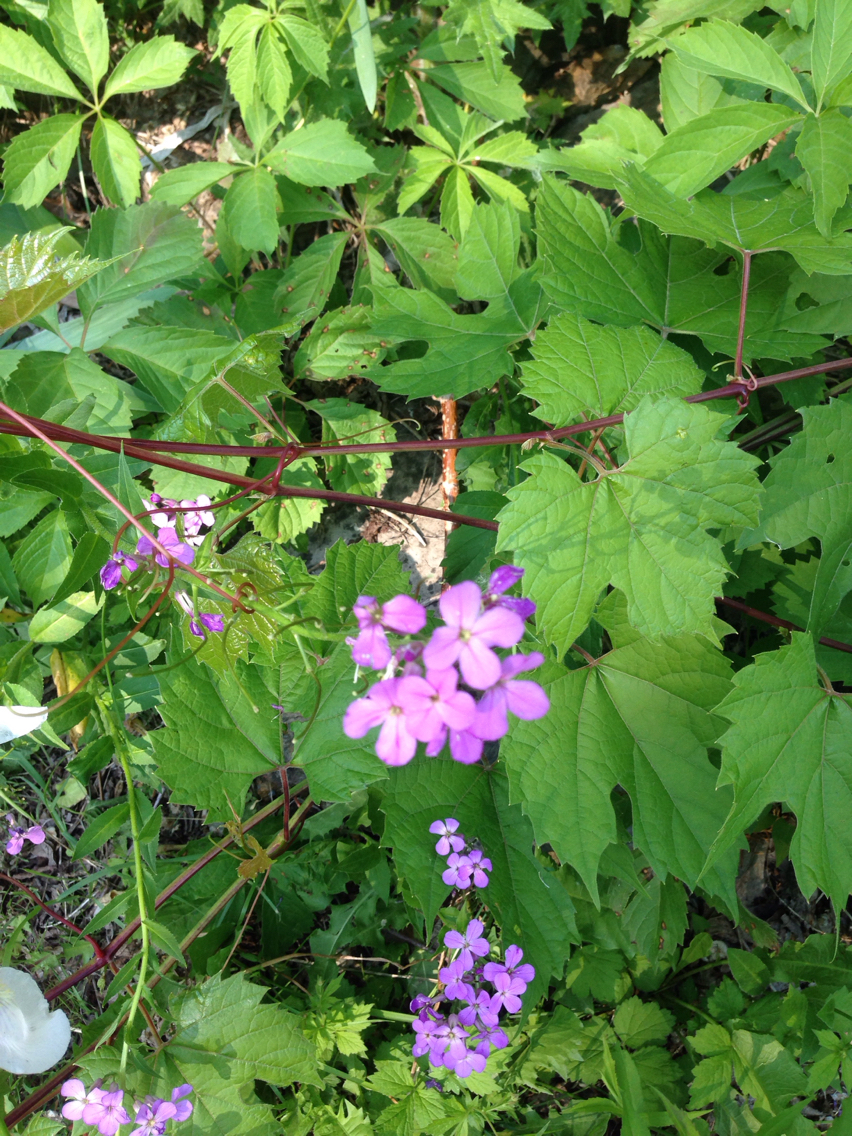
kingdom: Plantae
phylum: Tracheophyta
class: Magnoliopsida
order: Brassicales
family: Brassicaceae
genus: Hesperis
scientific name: Hesperis matronalis
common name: Dame's-violet
